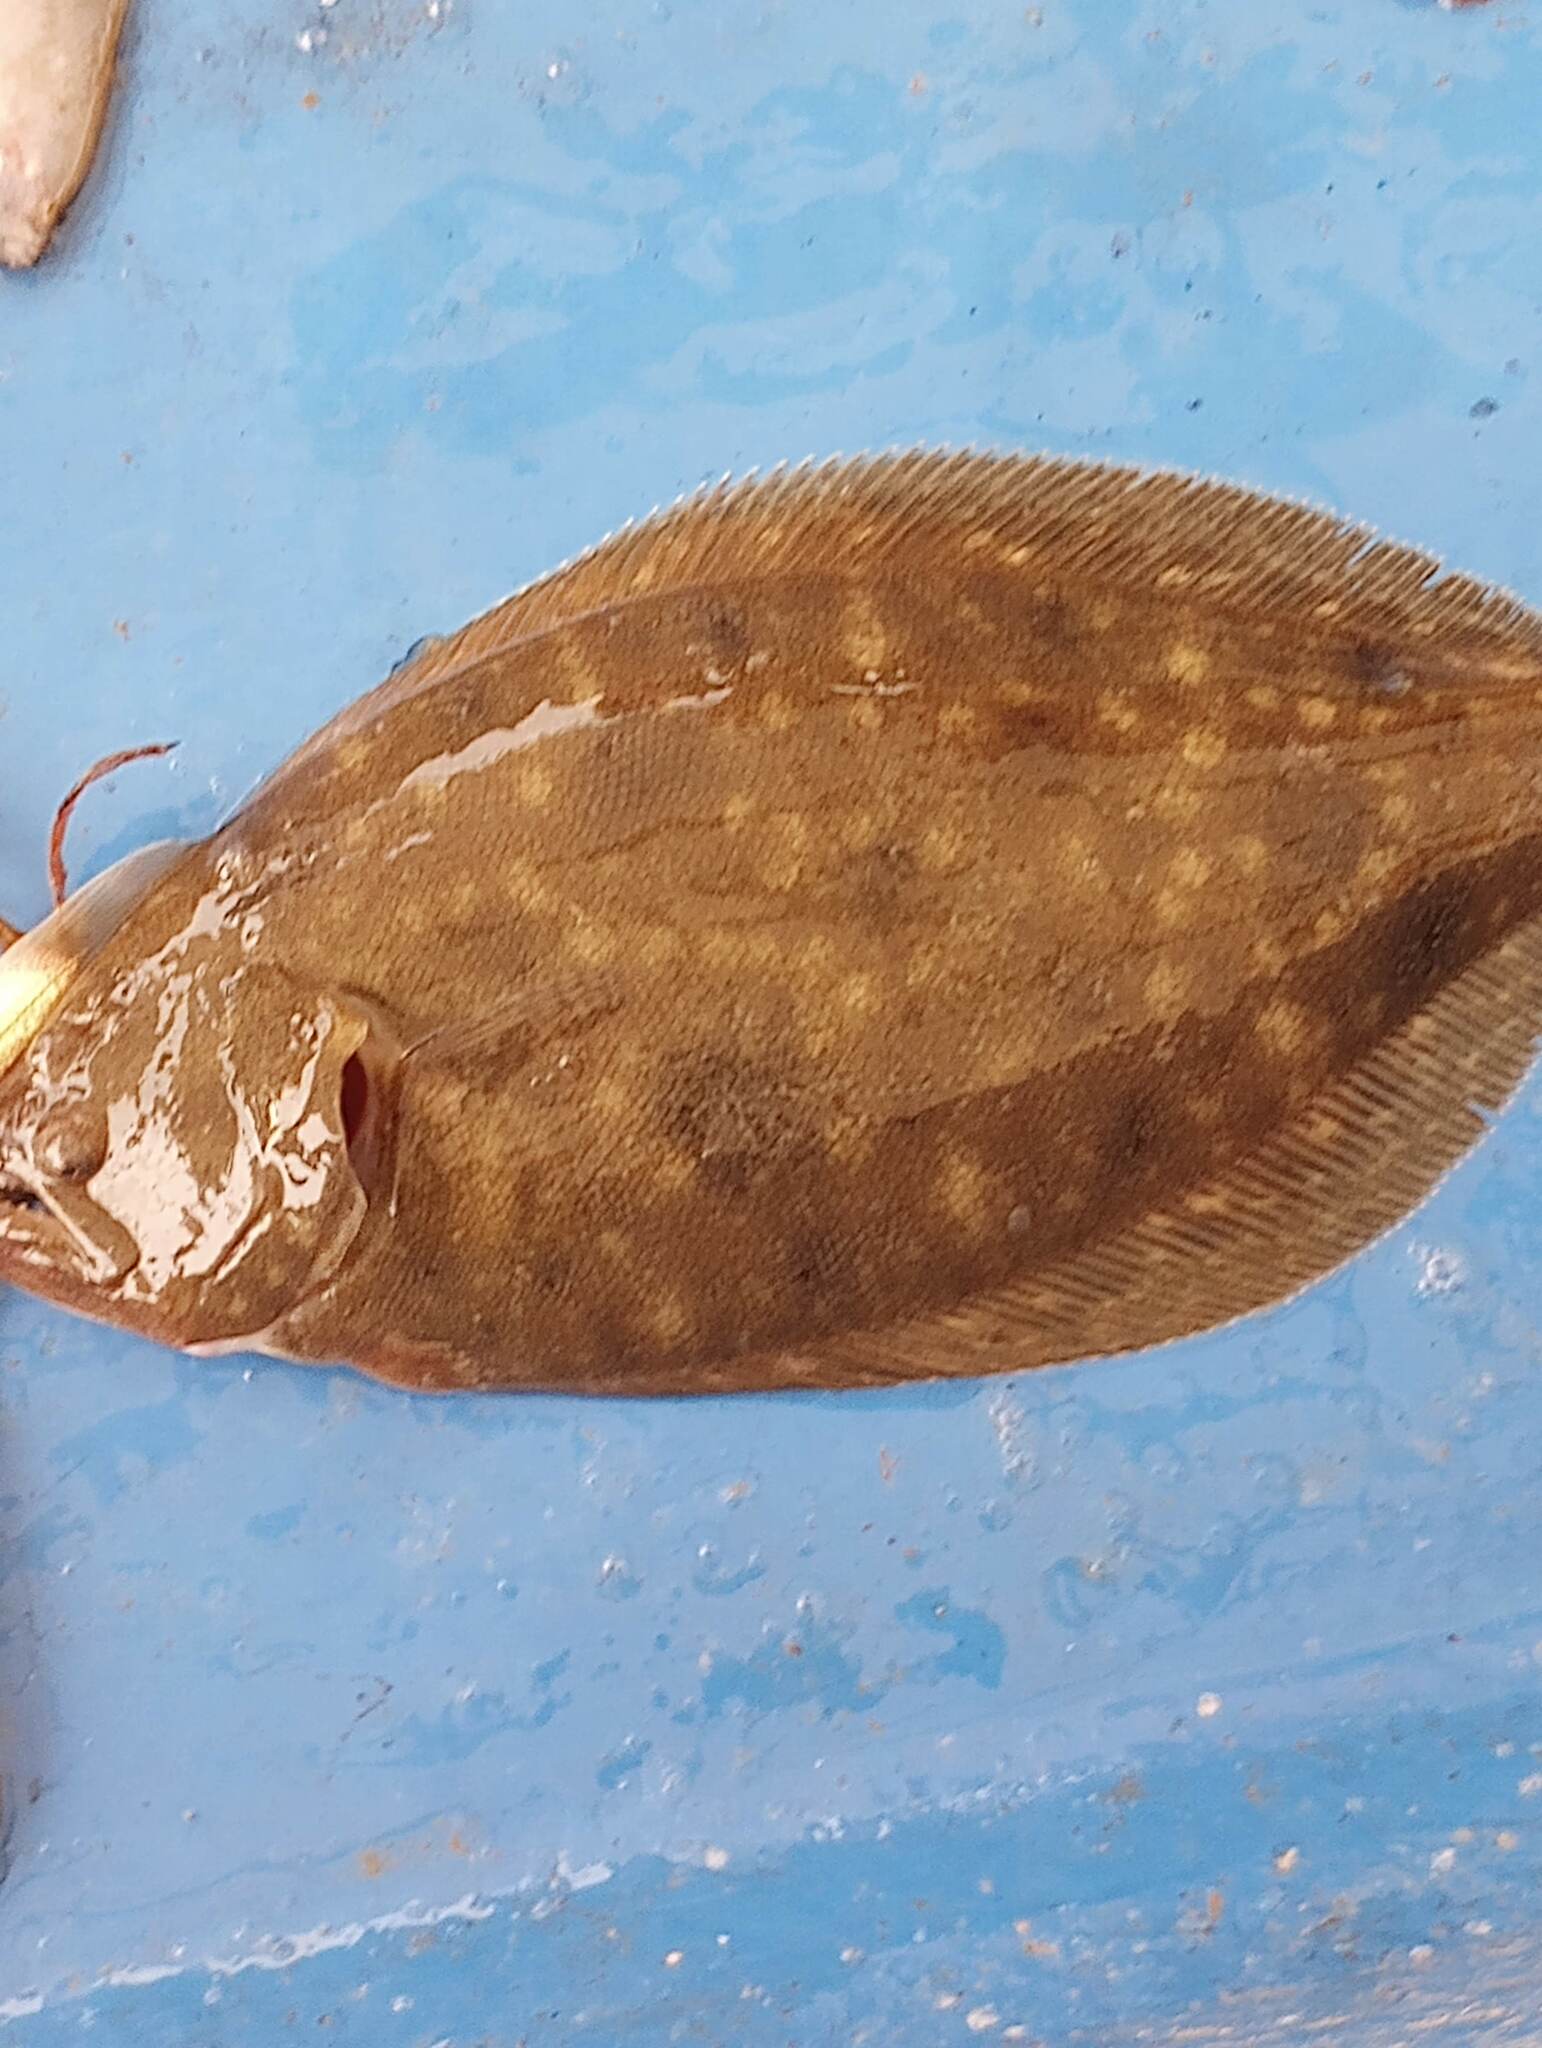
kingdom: Animalia
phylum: Chordata
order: Pleuronectiformes
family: Paralichthyidae
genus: Paralichthys
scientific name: Paralichthys lethostigma
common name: Southern flounder
